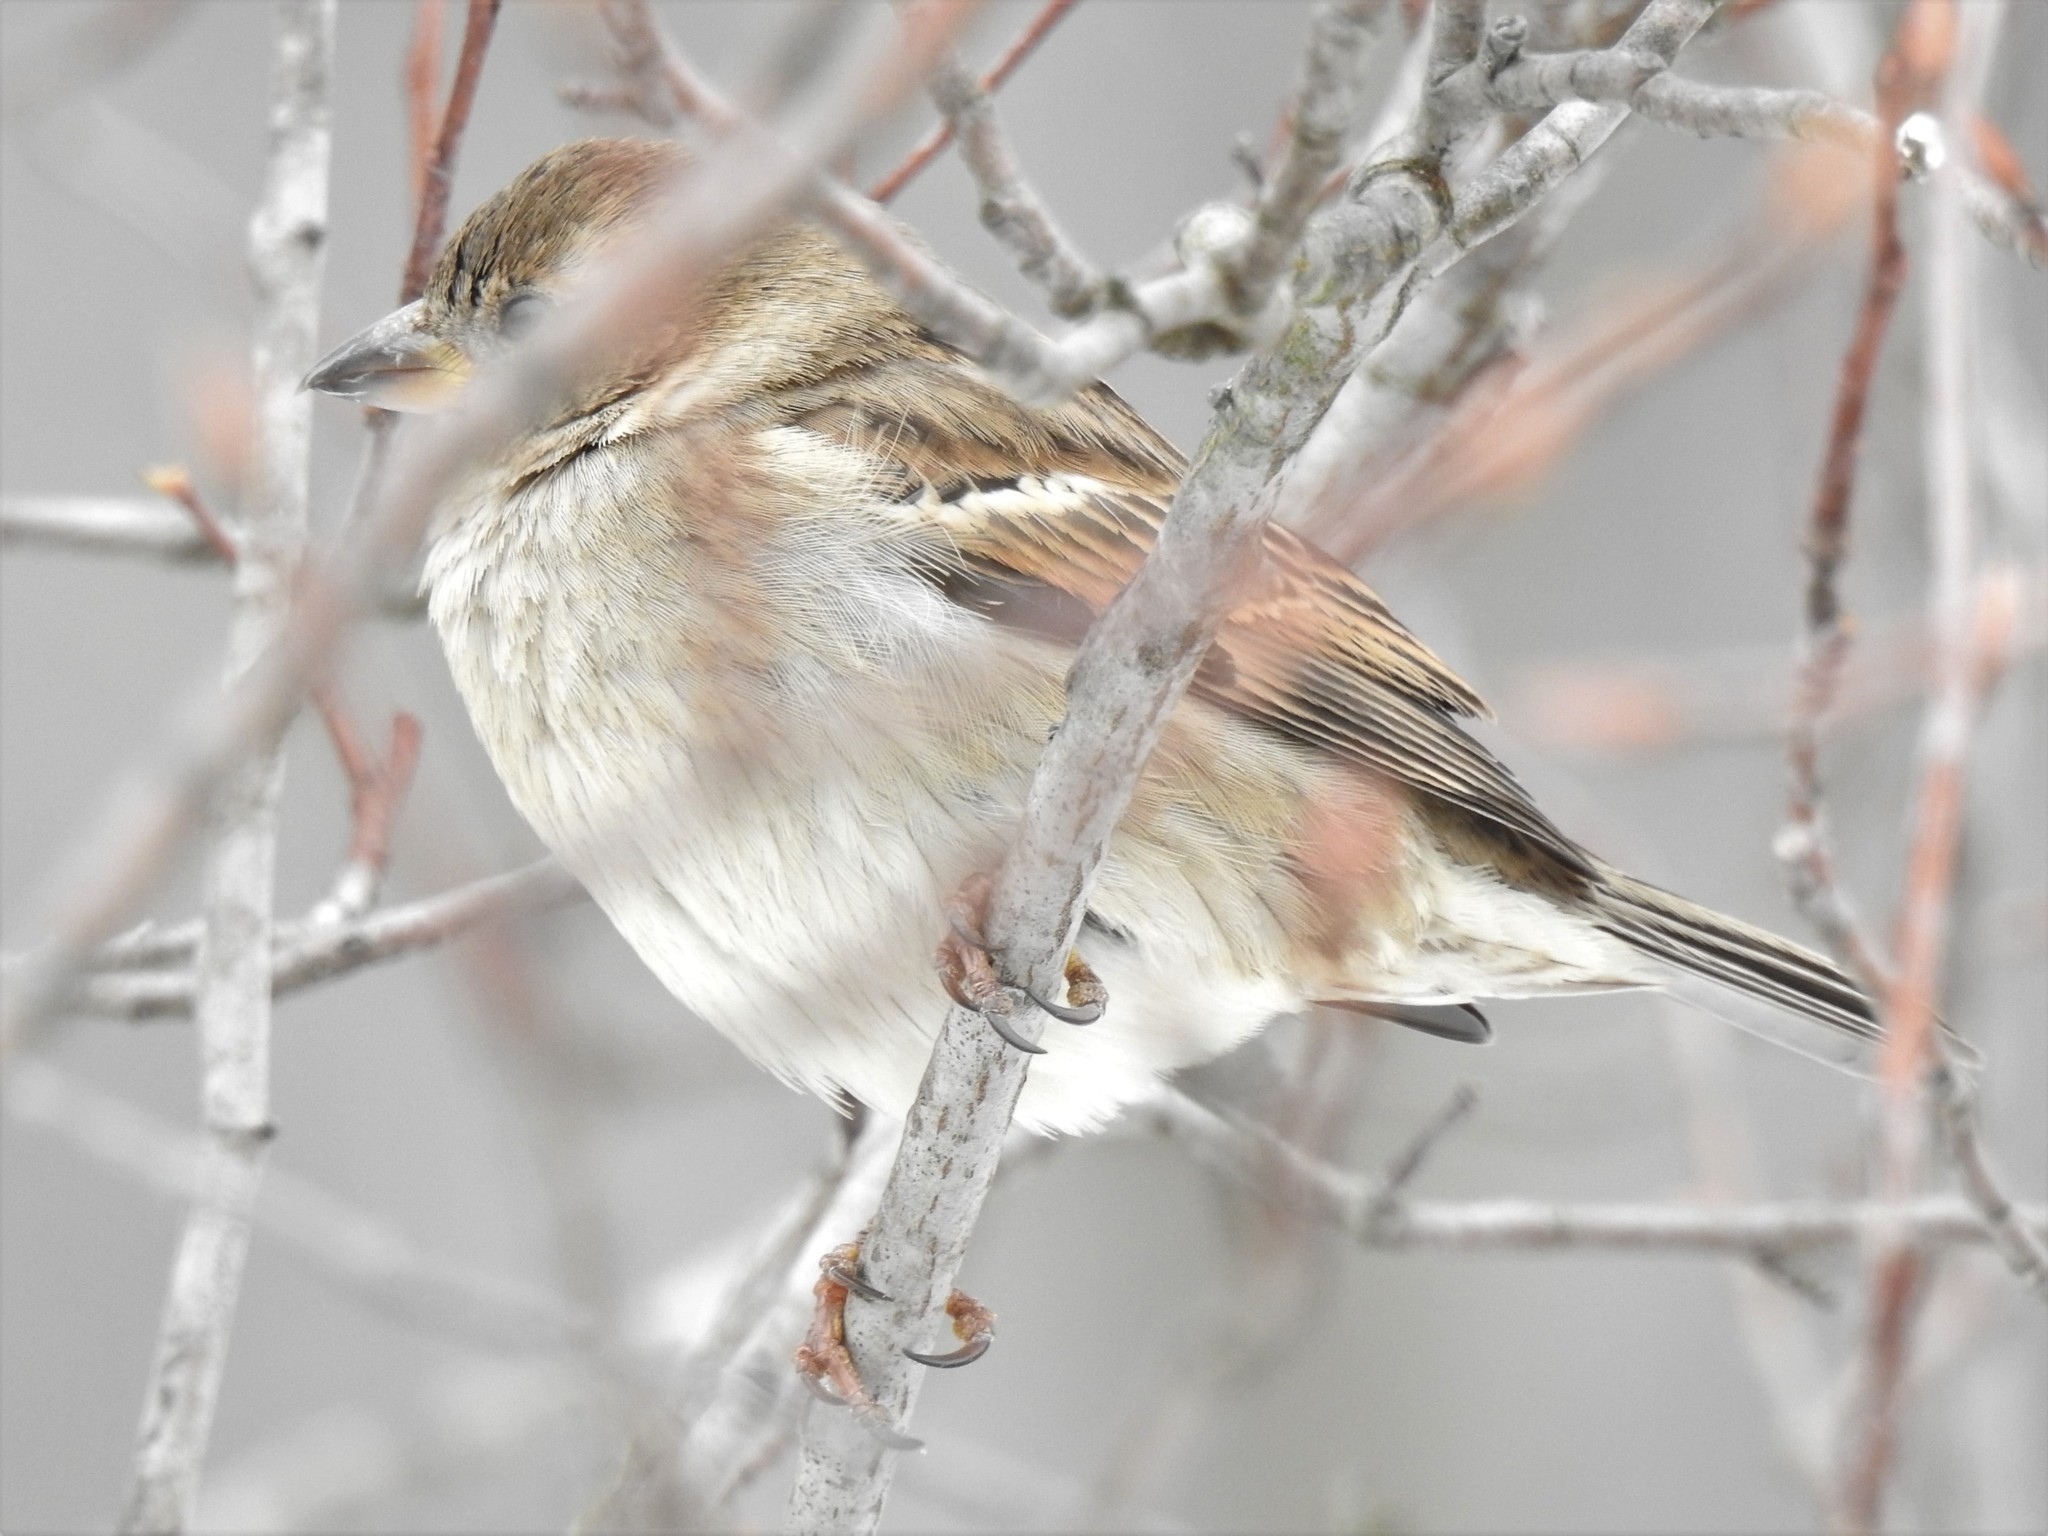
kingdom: Animalia
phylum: Chordata
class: Aves
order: Passeriformes
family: Passeridae
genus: Passer
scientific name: Passer domesticus
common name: House sparrow
